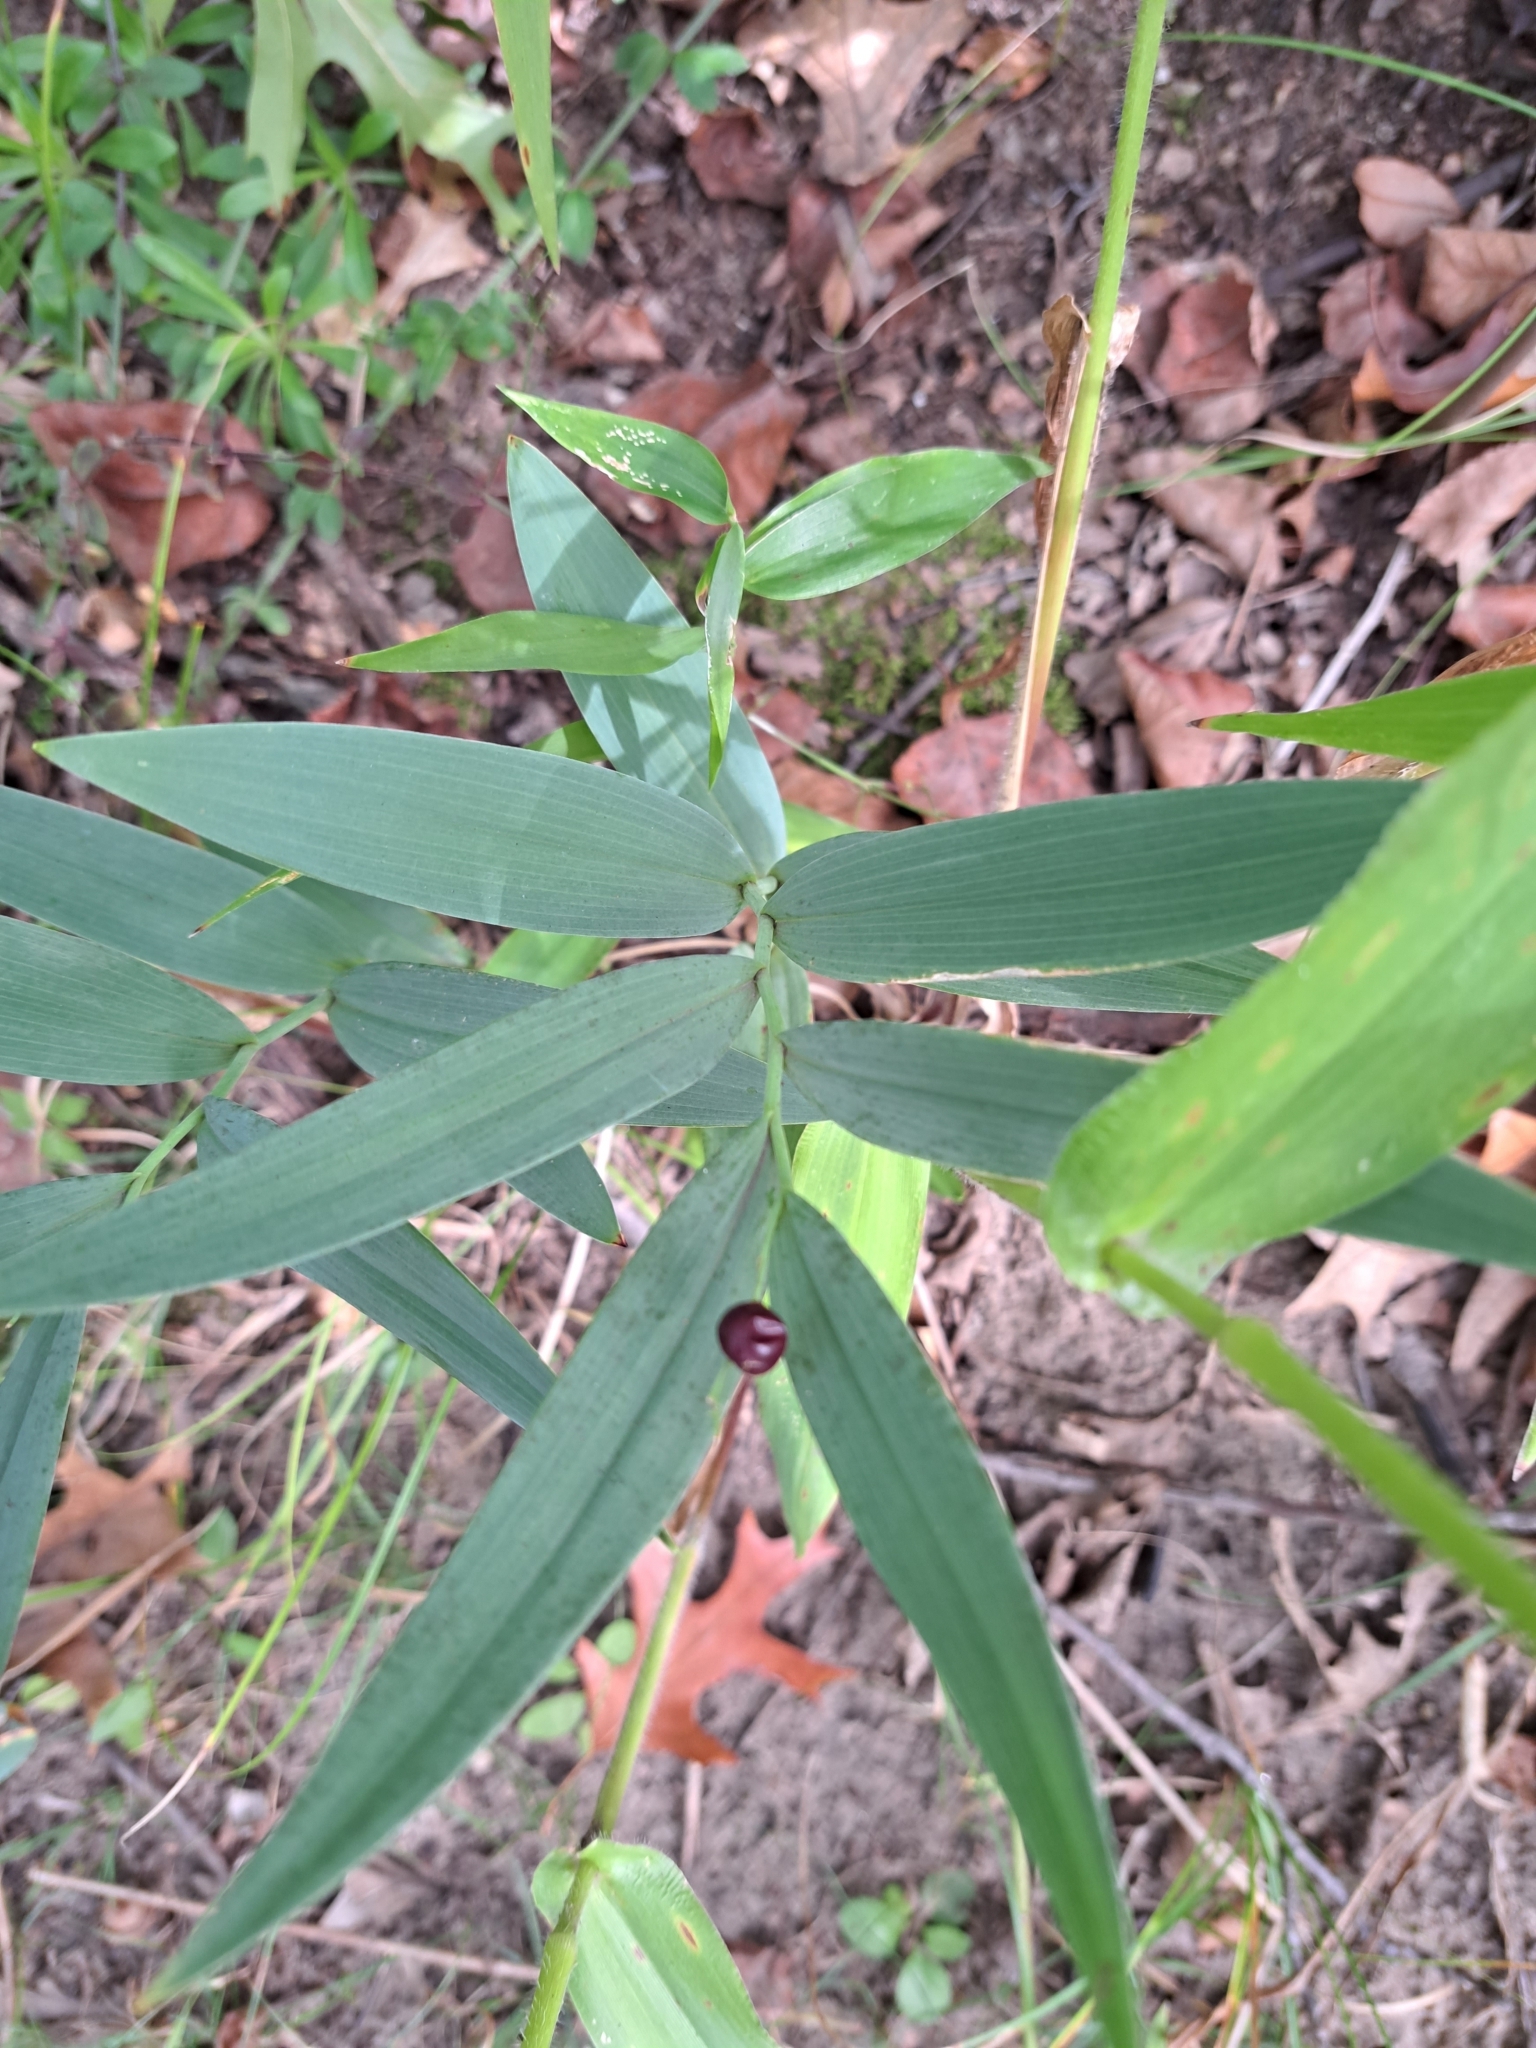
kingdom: Plantae
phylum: Tracheophyta
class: Liliopsida
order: Asparagales
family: Asparagaceae
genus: Maianthemum
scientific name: Maianthemum stellatum
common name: Little false solomon's seal
